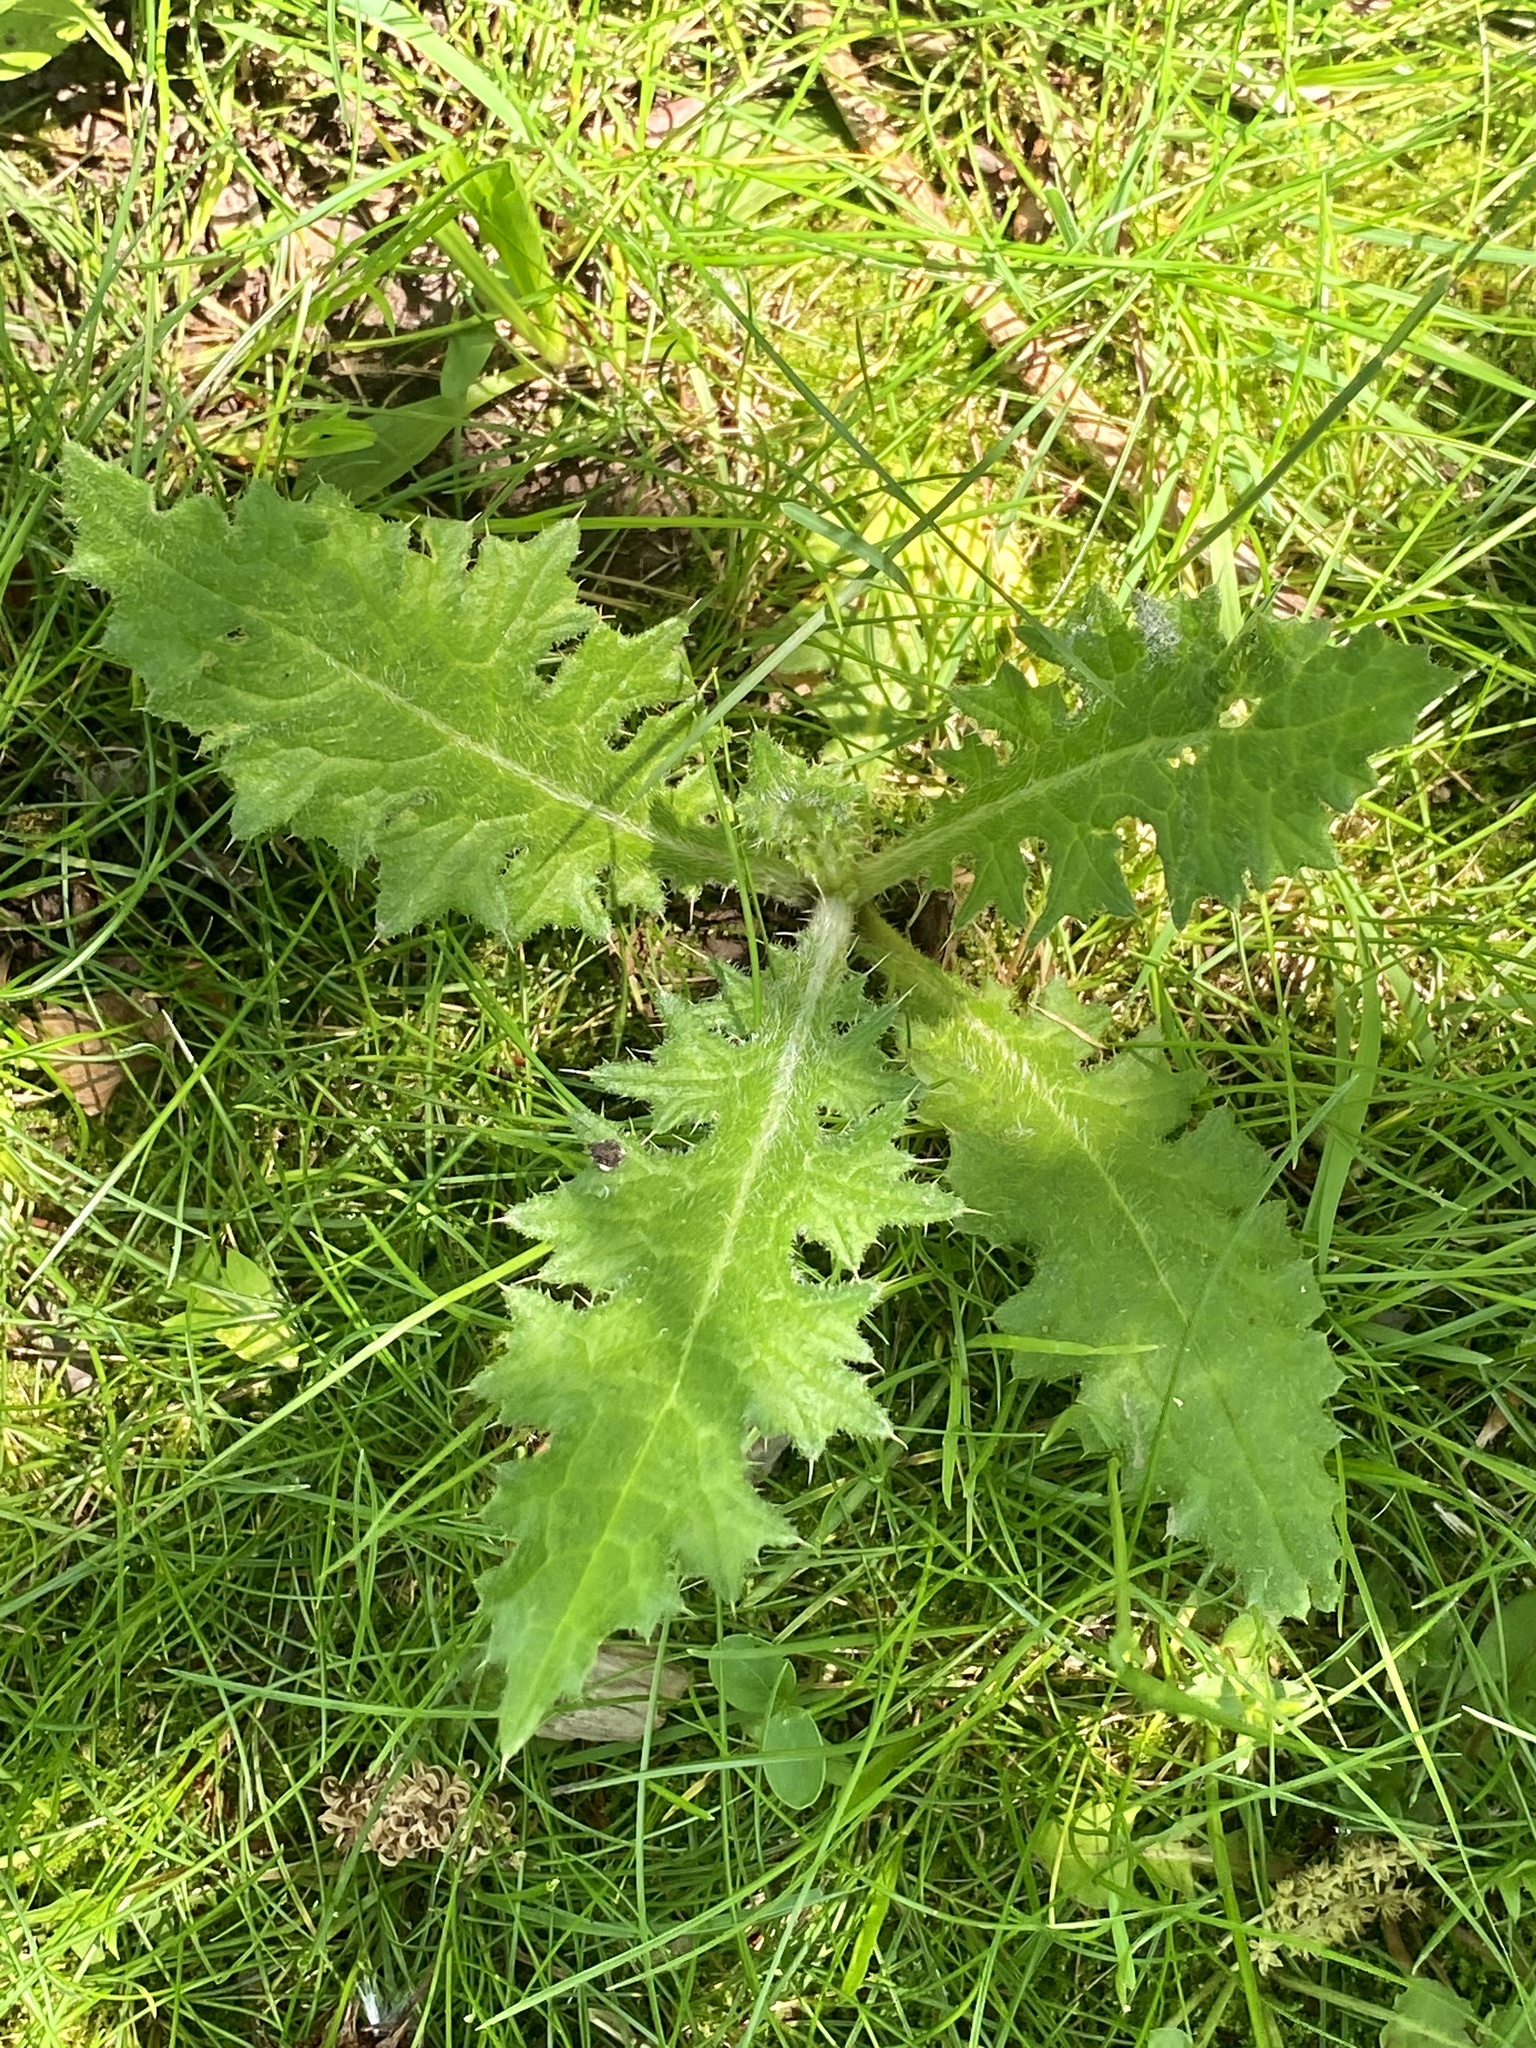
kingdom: Plantae
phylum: Tracheophyta
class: Magnoliopsida
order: Asterales
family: Asteraceae
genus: Cirsium
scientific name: Cirsium vulgare
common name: Bull thistle
